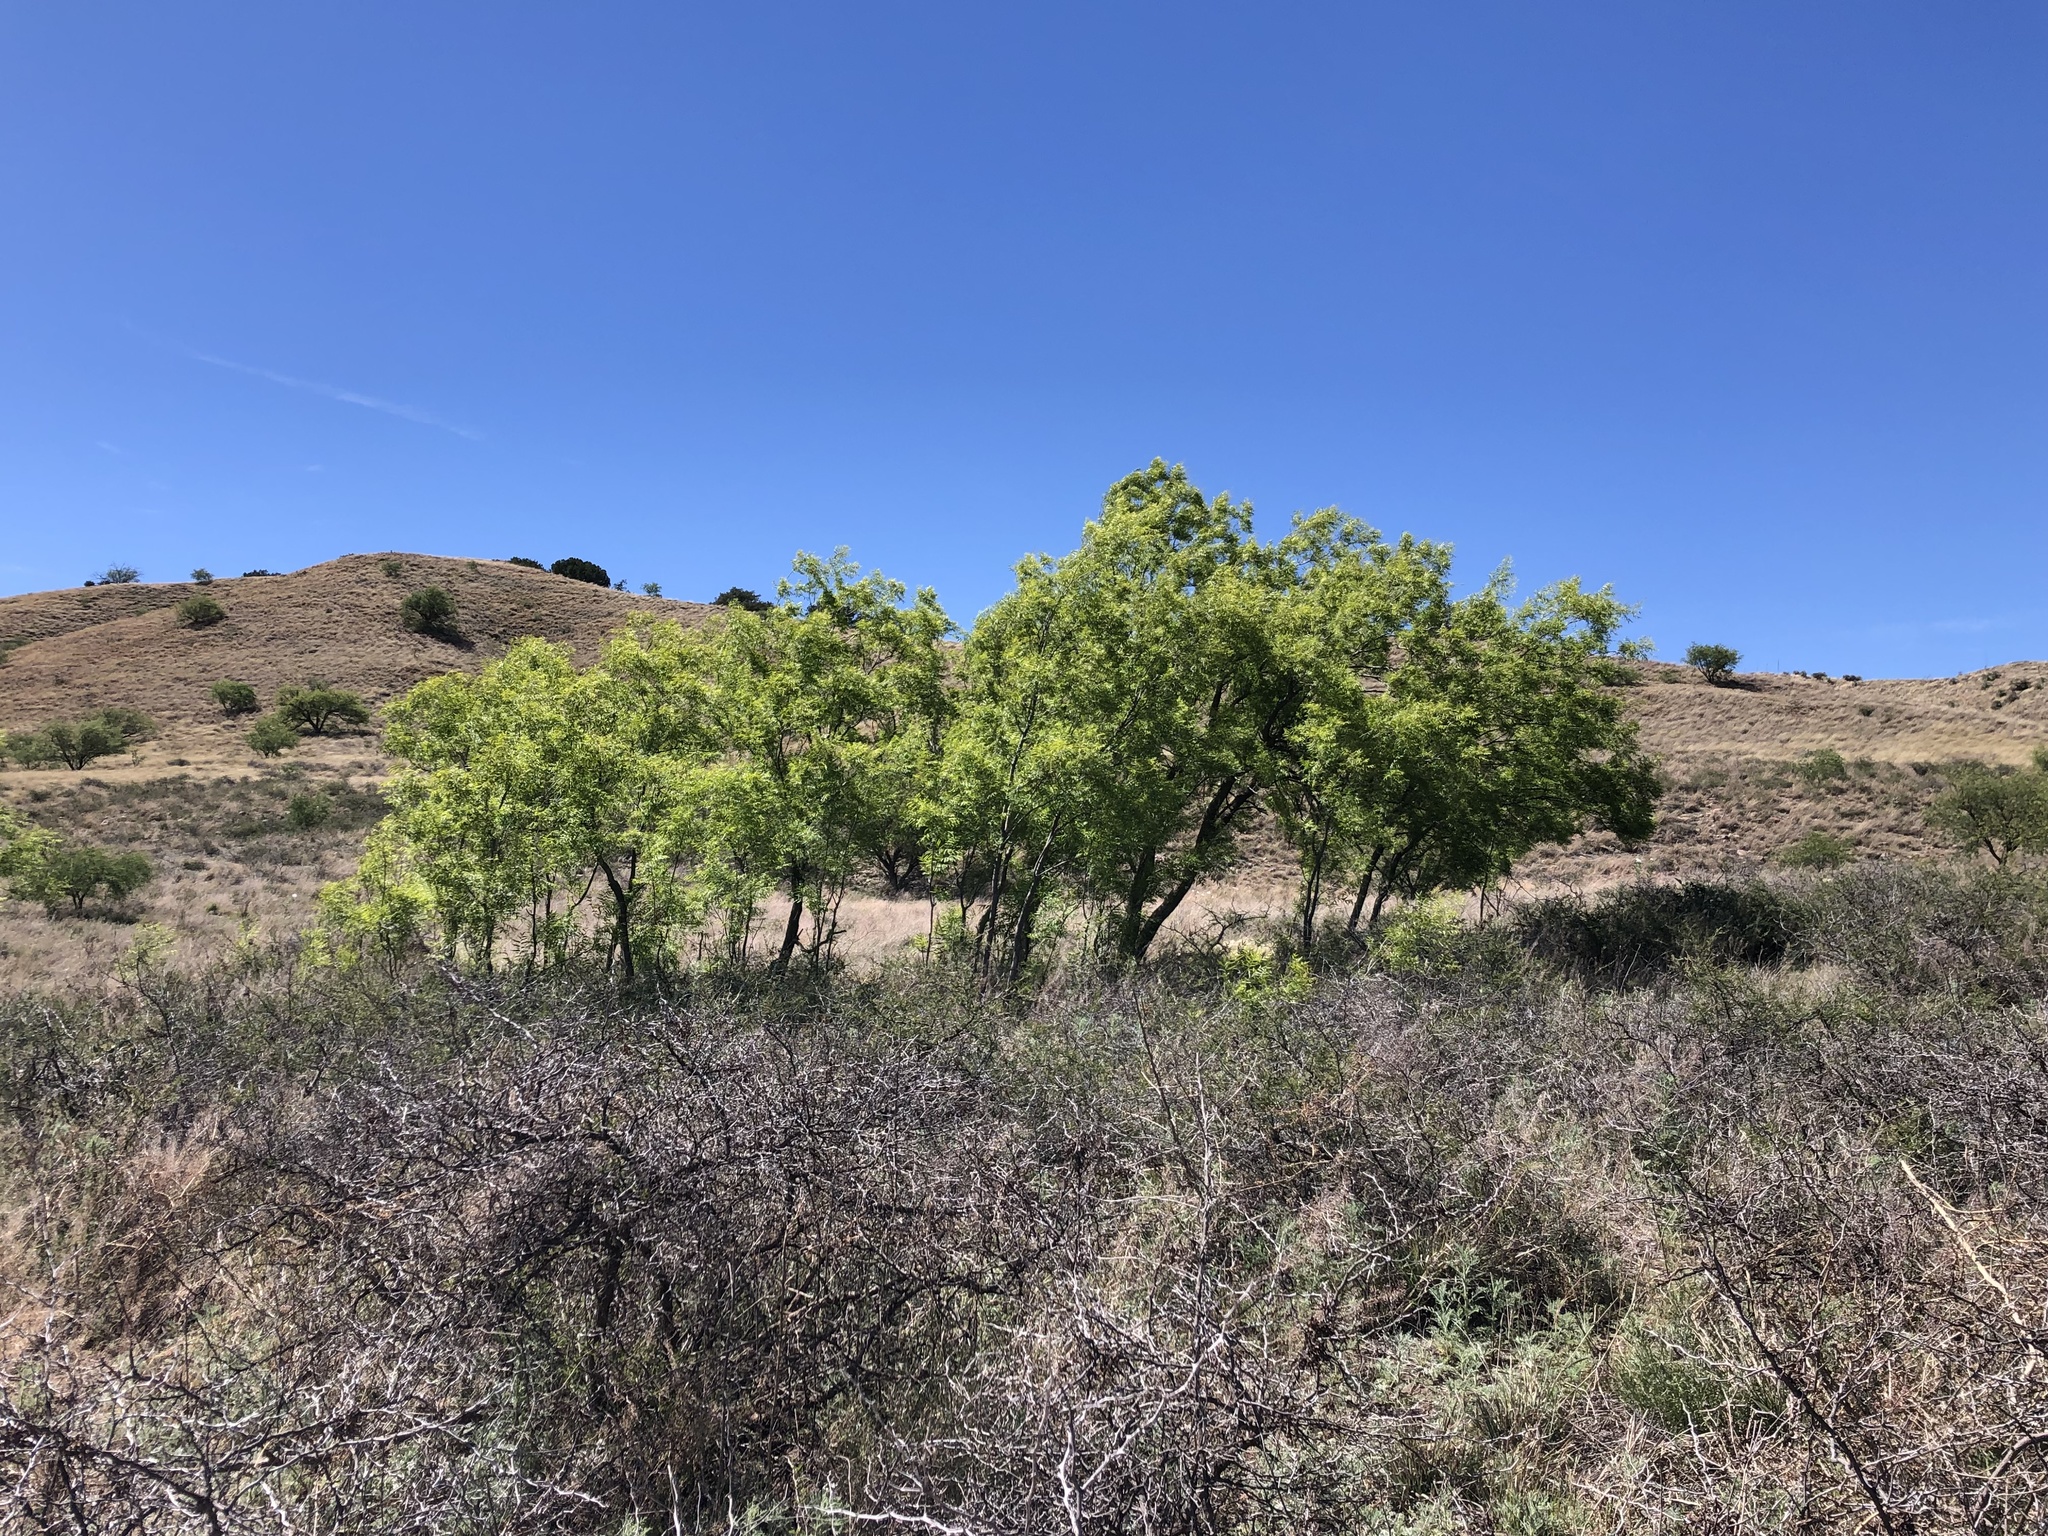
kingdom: Plantae
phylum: Tracheophyta
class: Magnoliopsida
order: Sapindales
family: Sapindaceae
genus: Sapindus
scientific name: Sapindus drummondii
